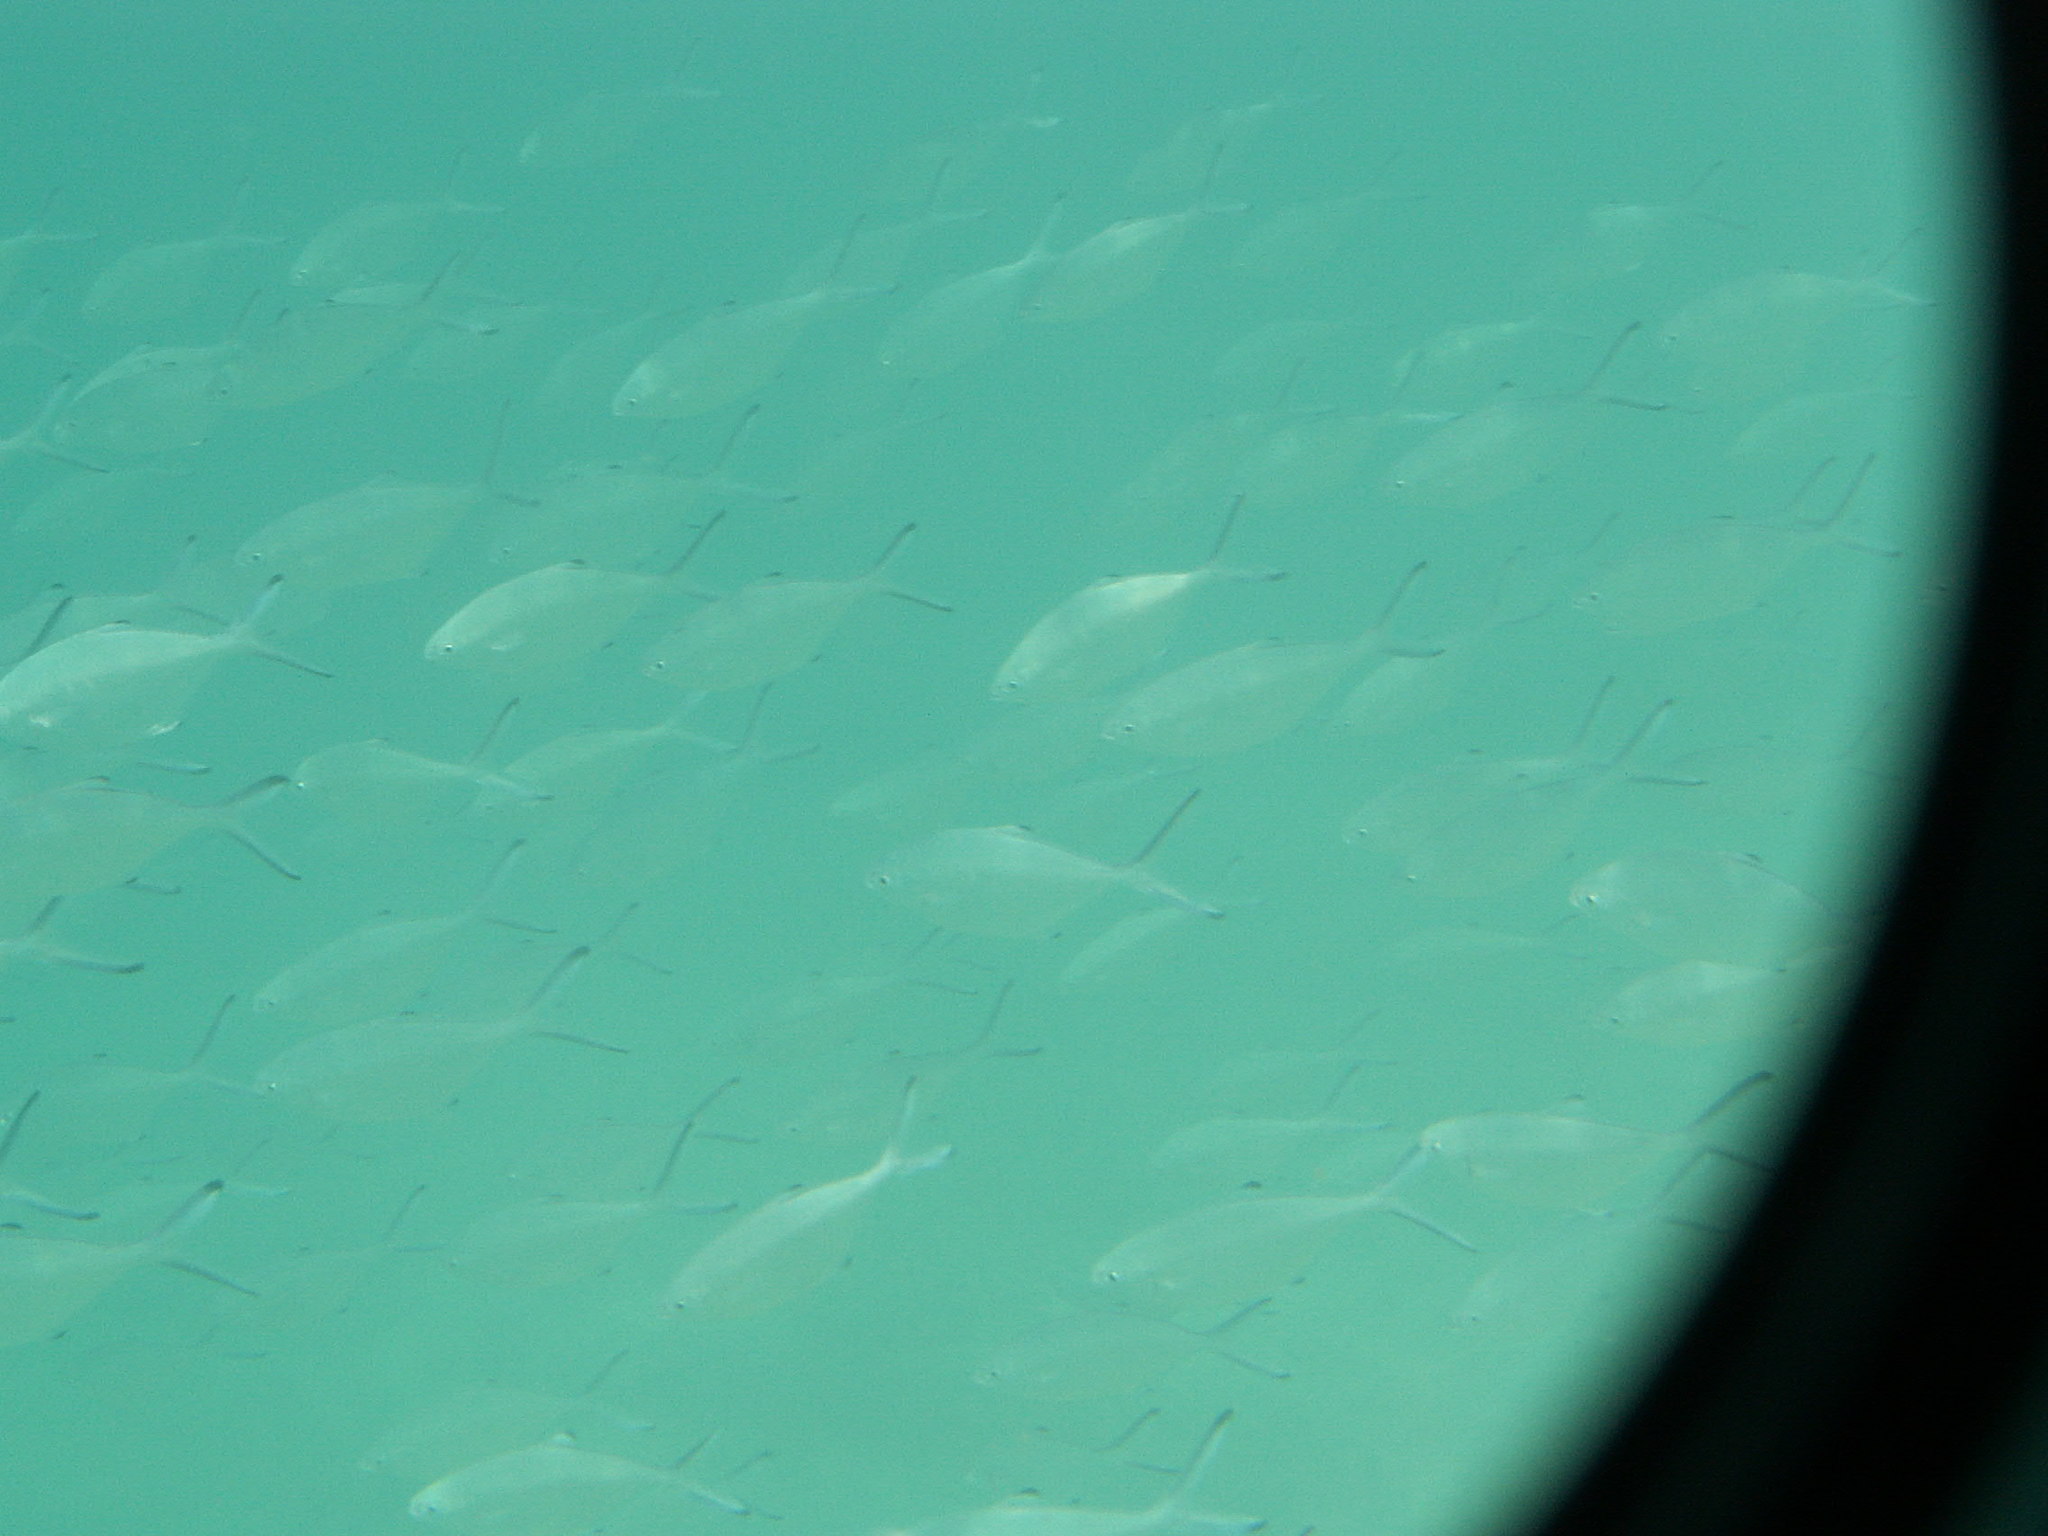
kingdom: Animalia
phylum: Chordata
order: Perciformes
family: Carangidae
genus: Trachinotus
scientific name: Trachinotus ovatus
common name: Pompano
